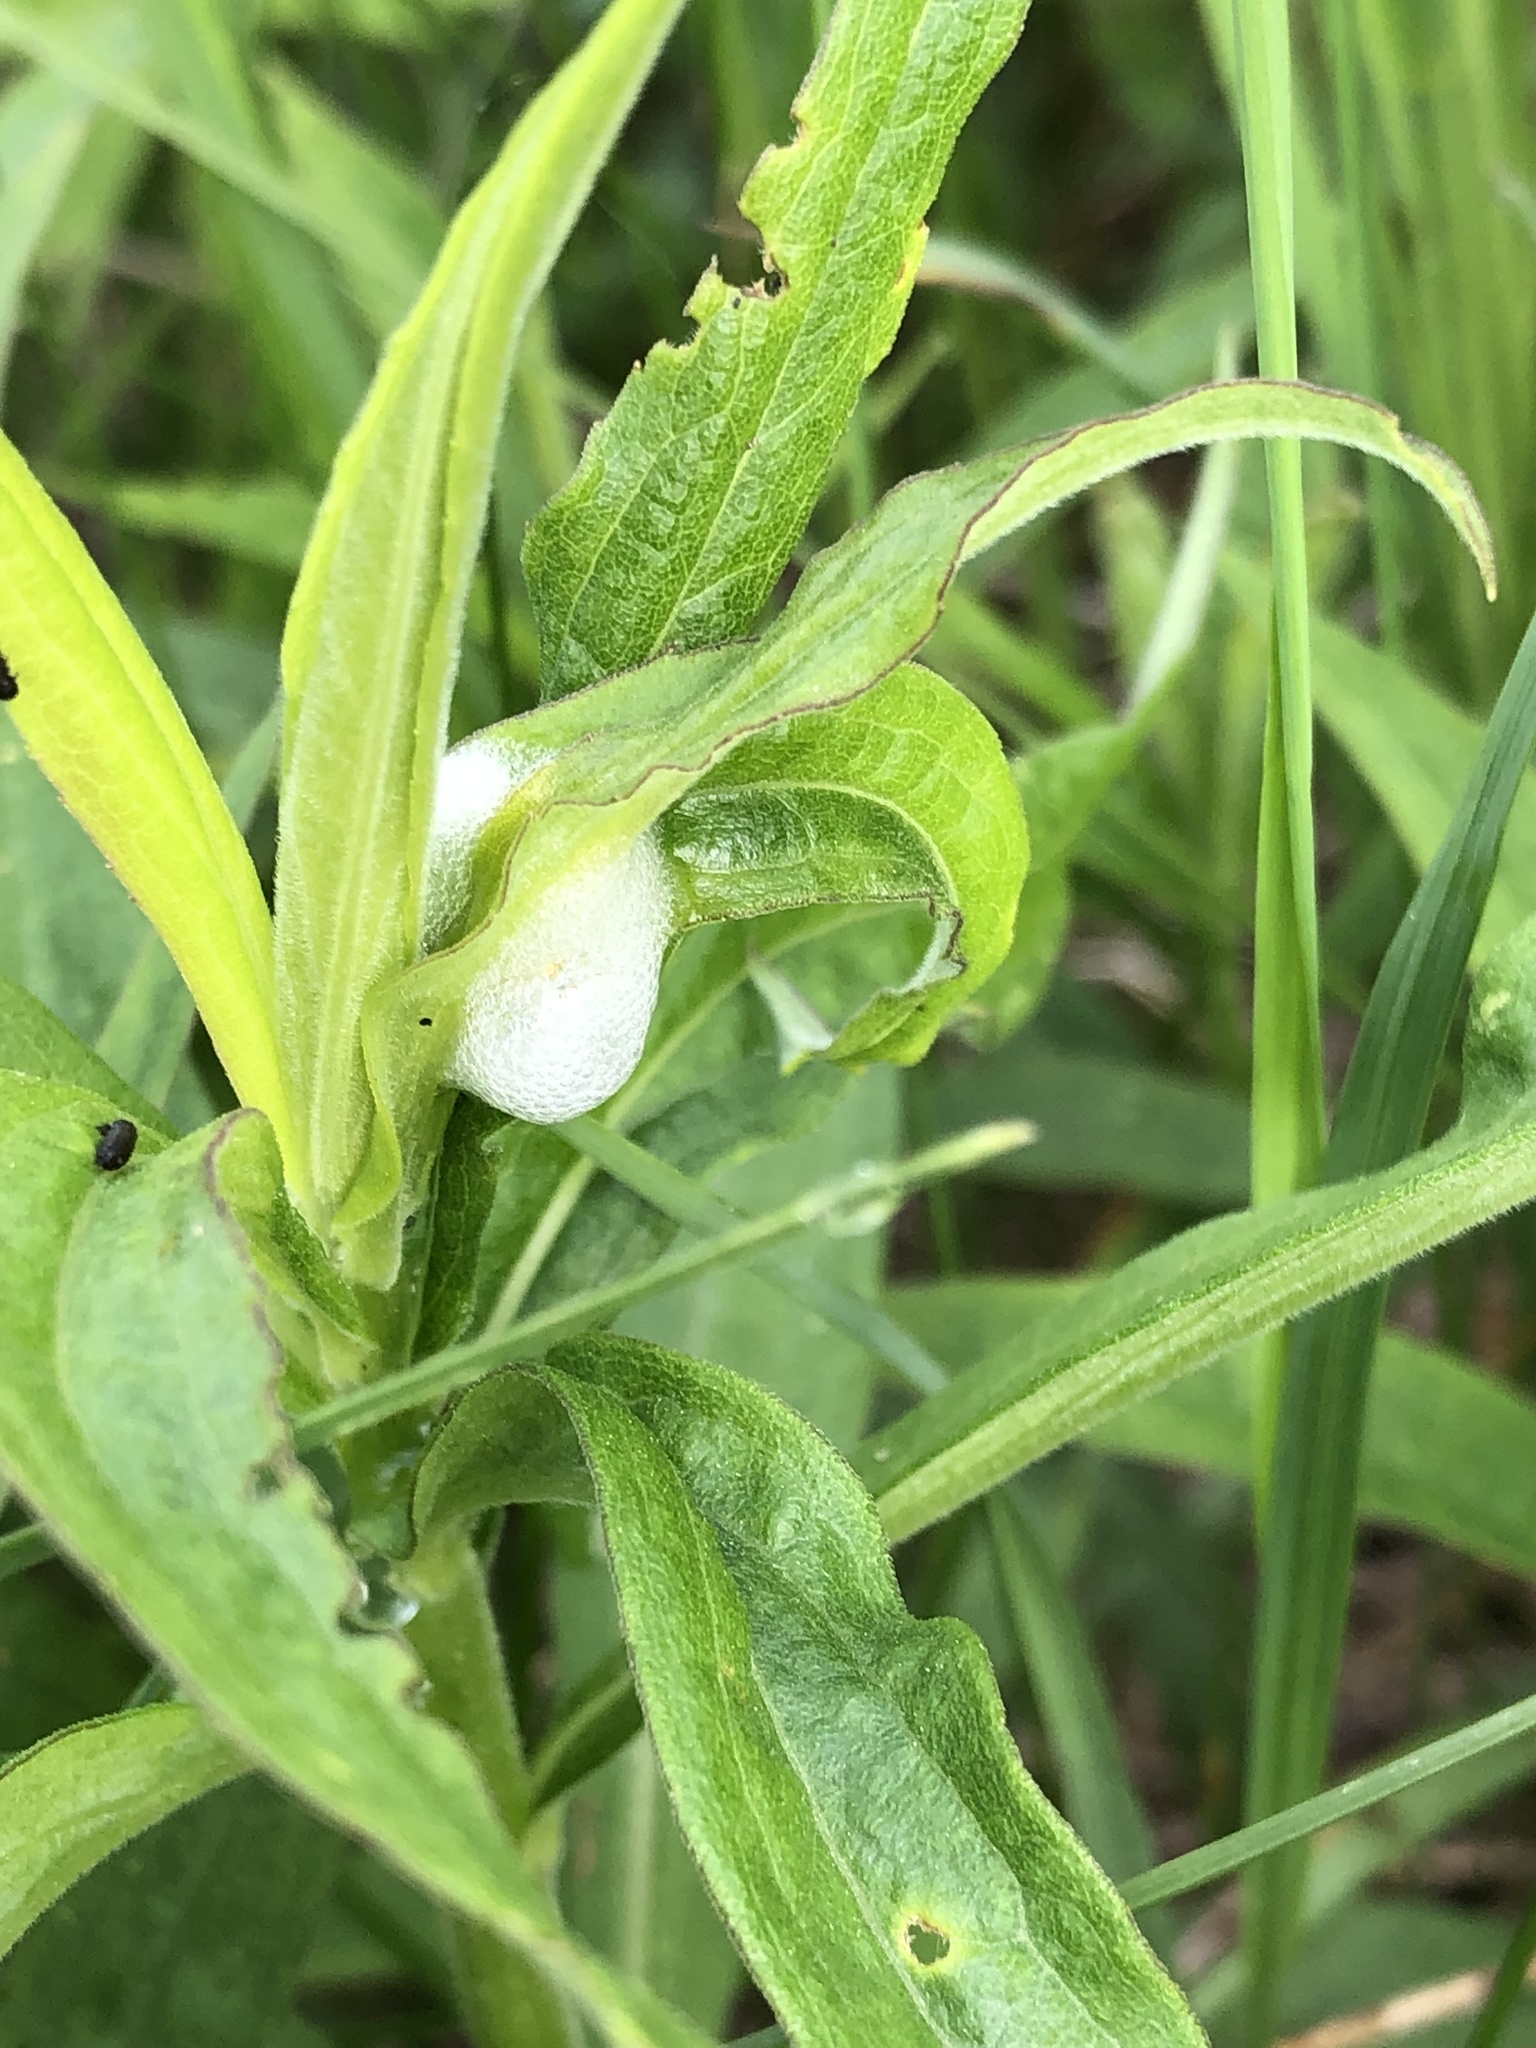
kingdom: Animalia
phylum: Arthropoda
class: Insecta
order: Hemiptera
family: Aphrophoridae
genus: Philaenus
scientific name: Philaenus spumarius
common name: Meadow spittlebug
